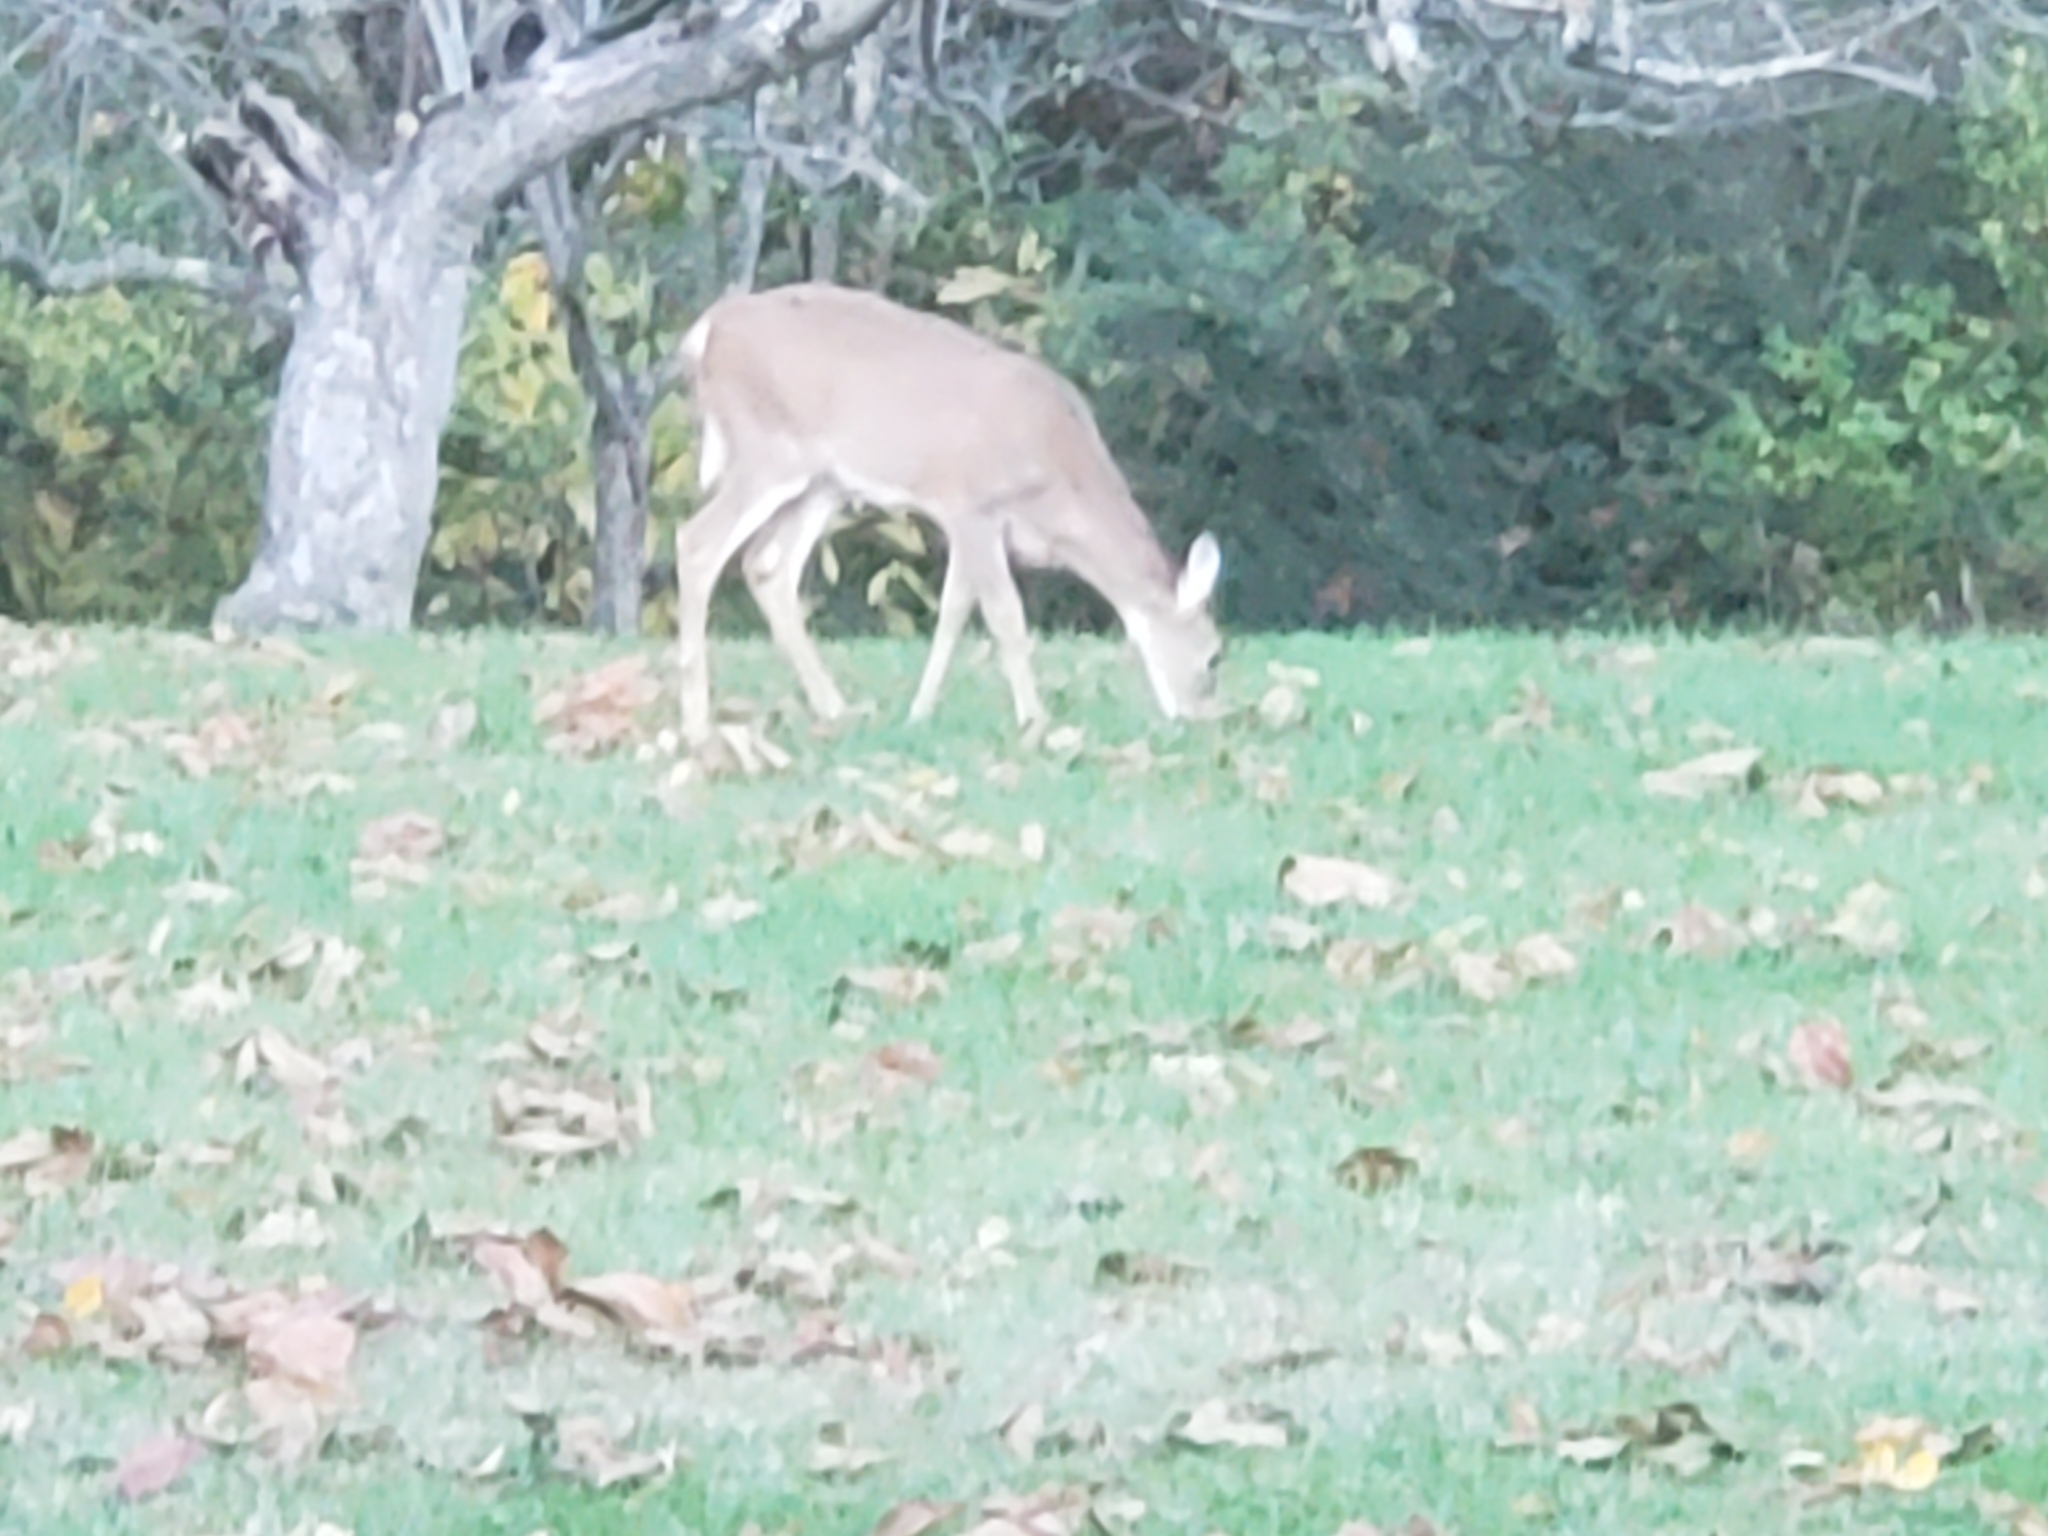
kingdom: Animalia
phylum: Chordata
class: Mammalia
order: Artiodactyla
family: Cervidae
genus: Odocoileus
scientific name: Odocoileus virginianus
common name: White-tailed deer
